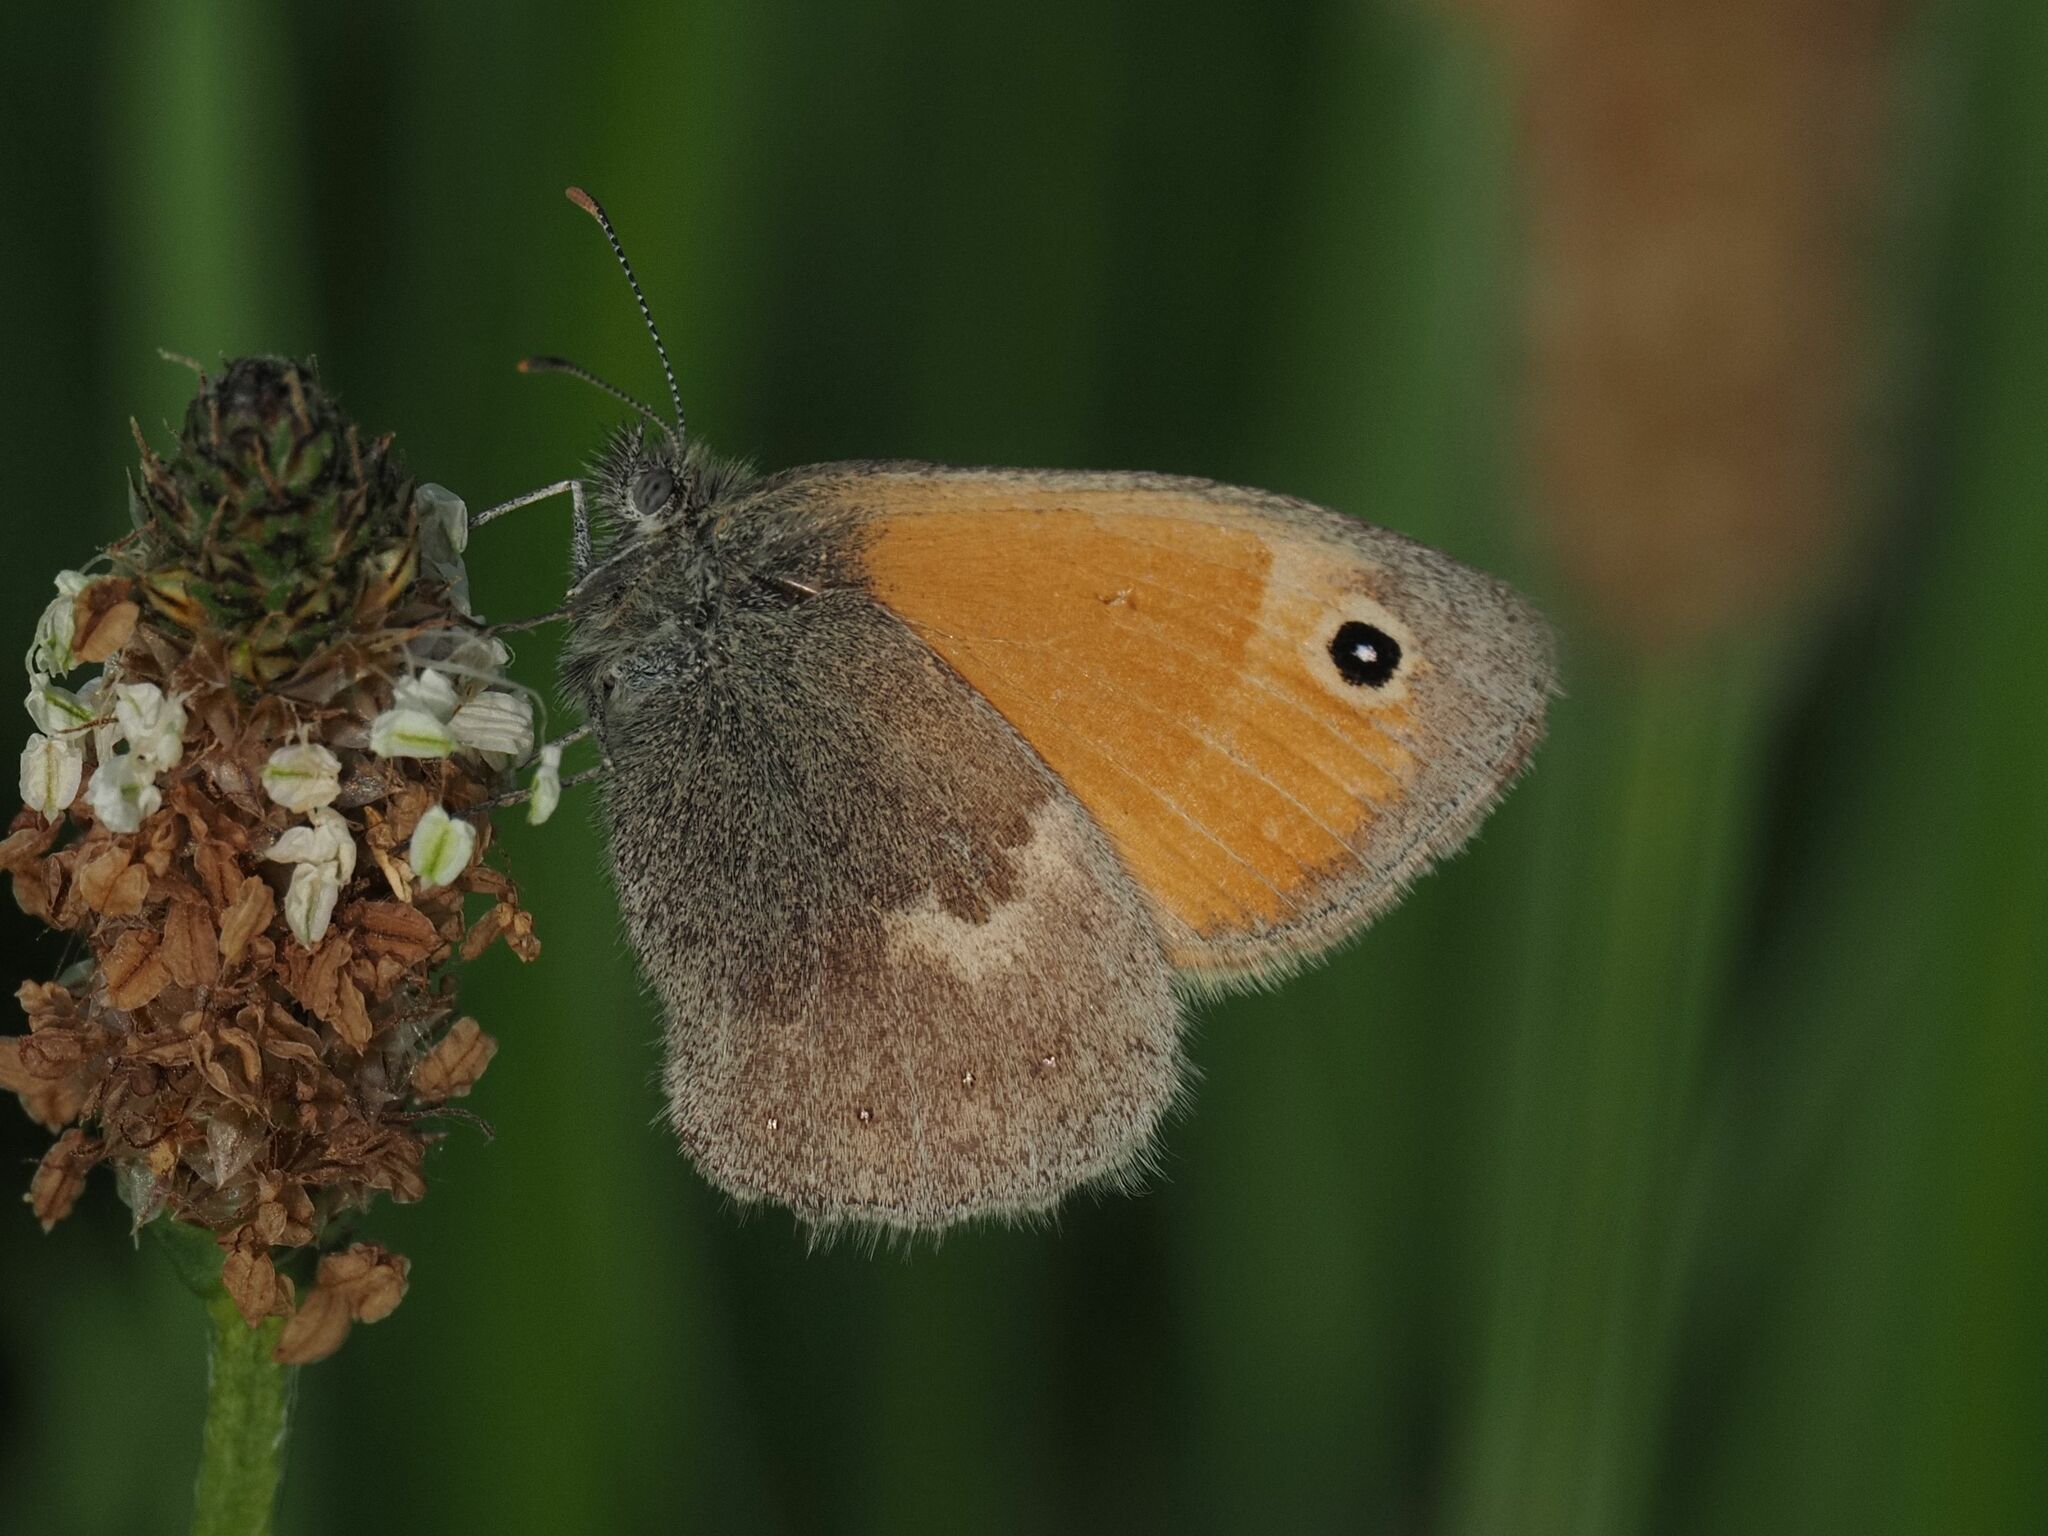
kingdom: Animalia
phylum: Arthropoda
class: Insecta
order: Lepidoptera
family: Nymphalidae
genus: Coenonympha
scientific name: Coenonympha pamphilus
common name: Small heath
